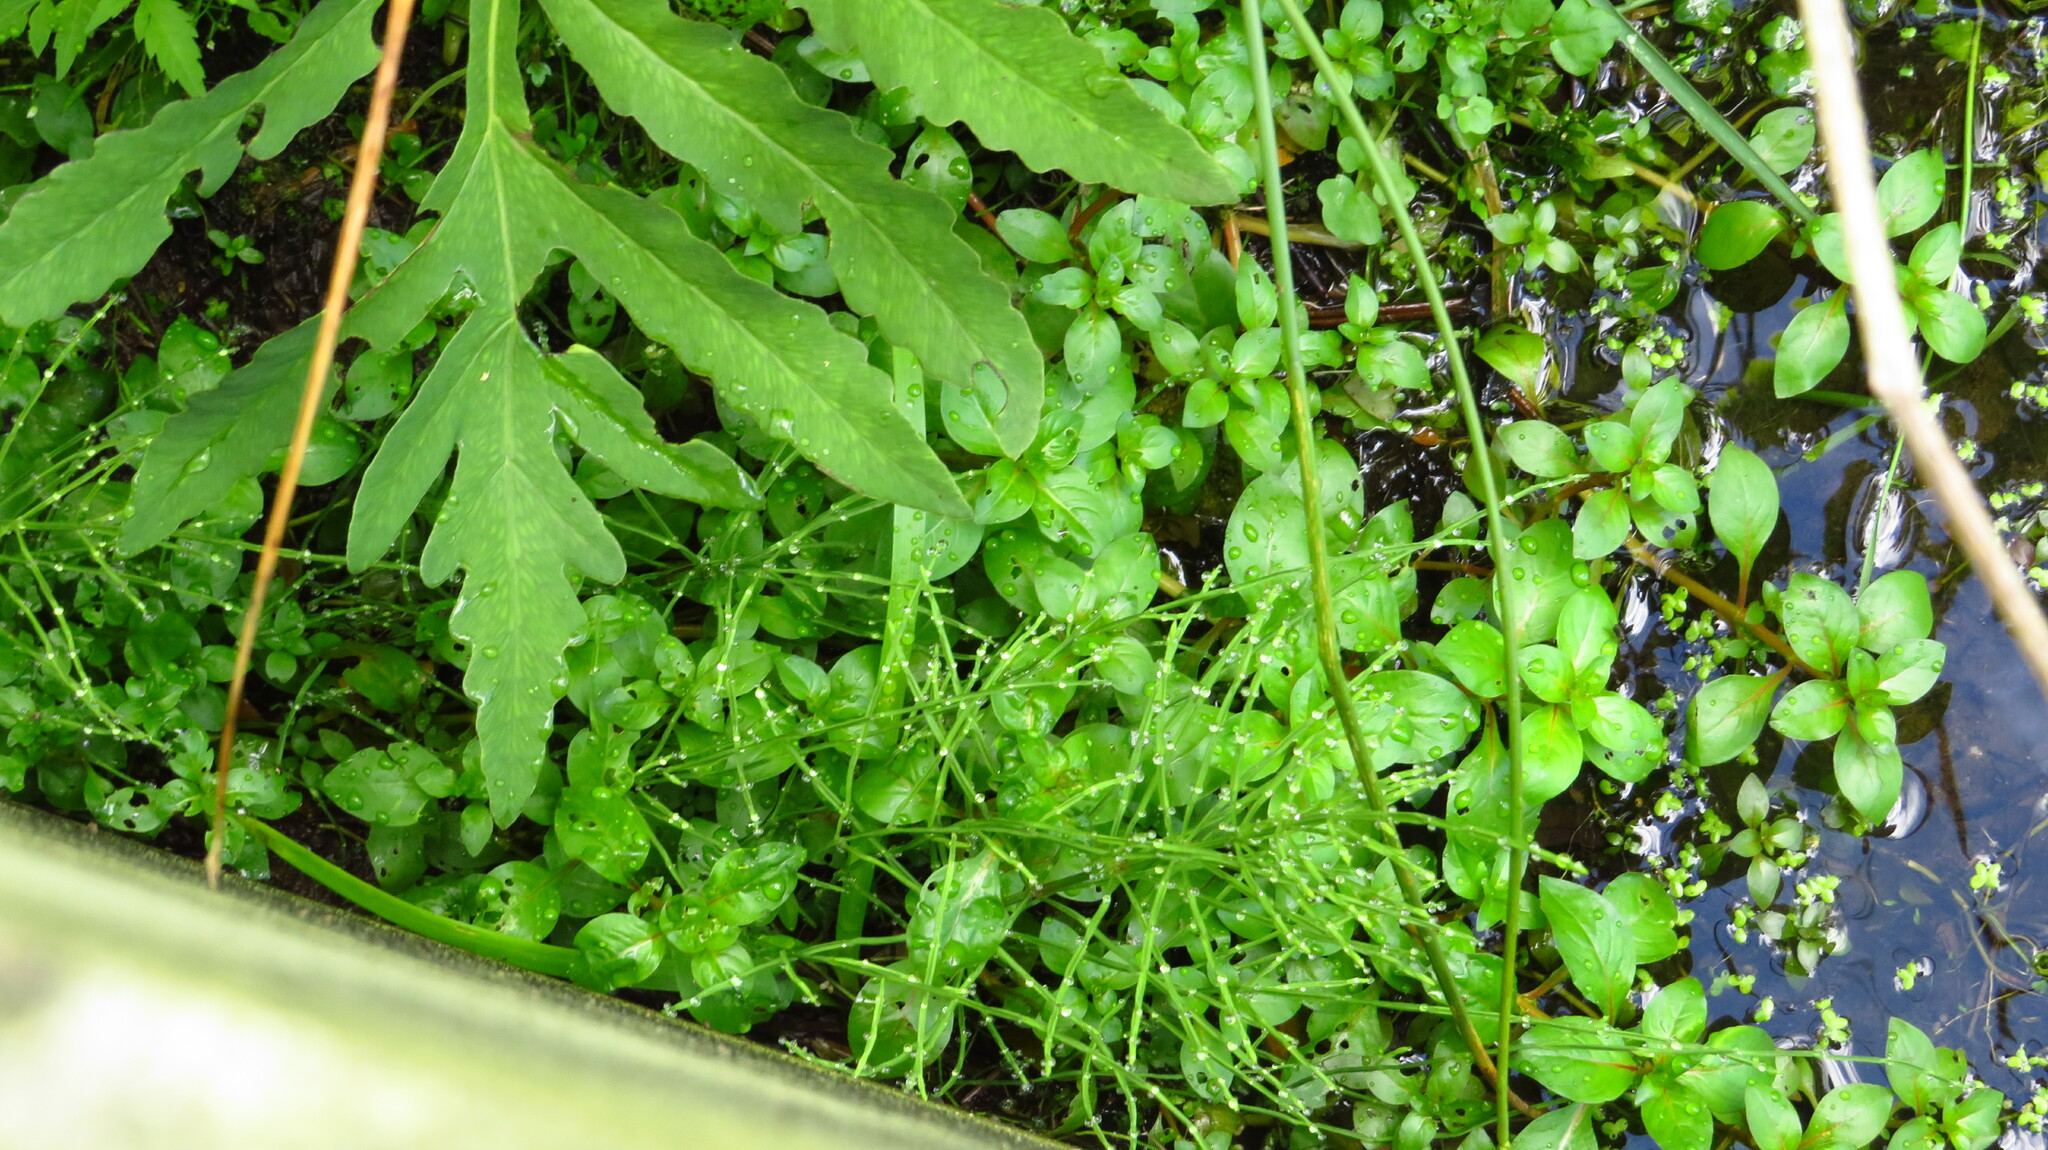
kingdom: Plantae
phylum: Tracheophyta
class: Polypodiopsida
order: Equisetales
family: Equisetaceae
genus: Equisetum
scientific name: Equisetum arvense
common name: Field horsetail
